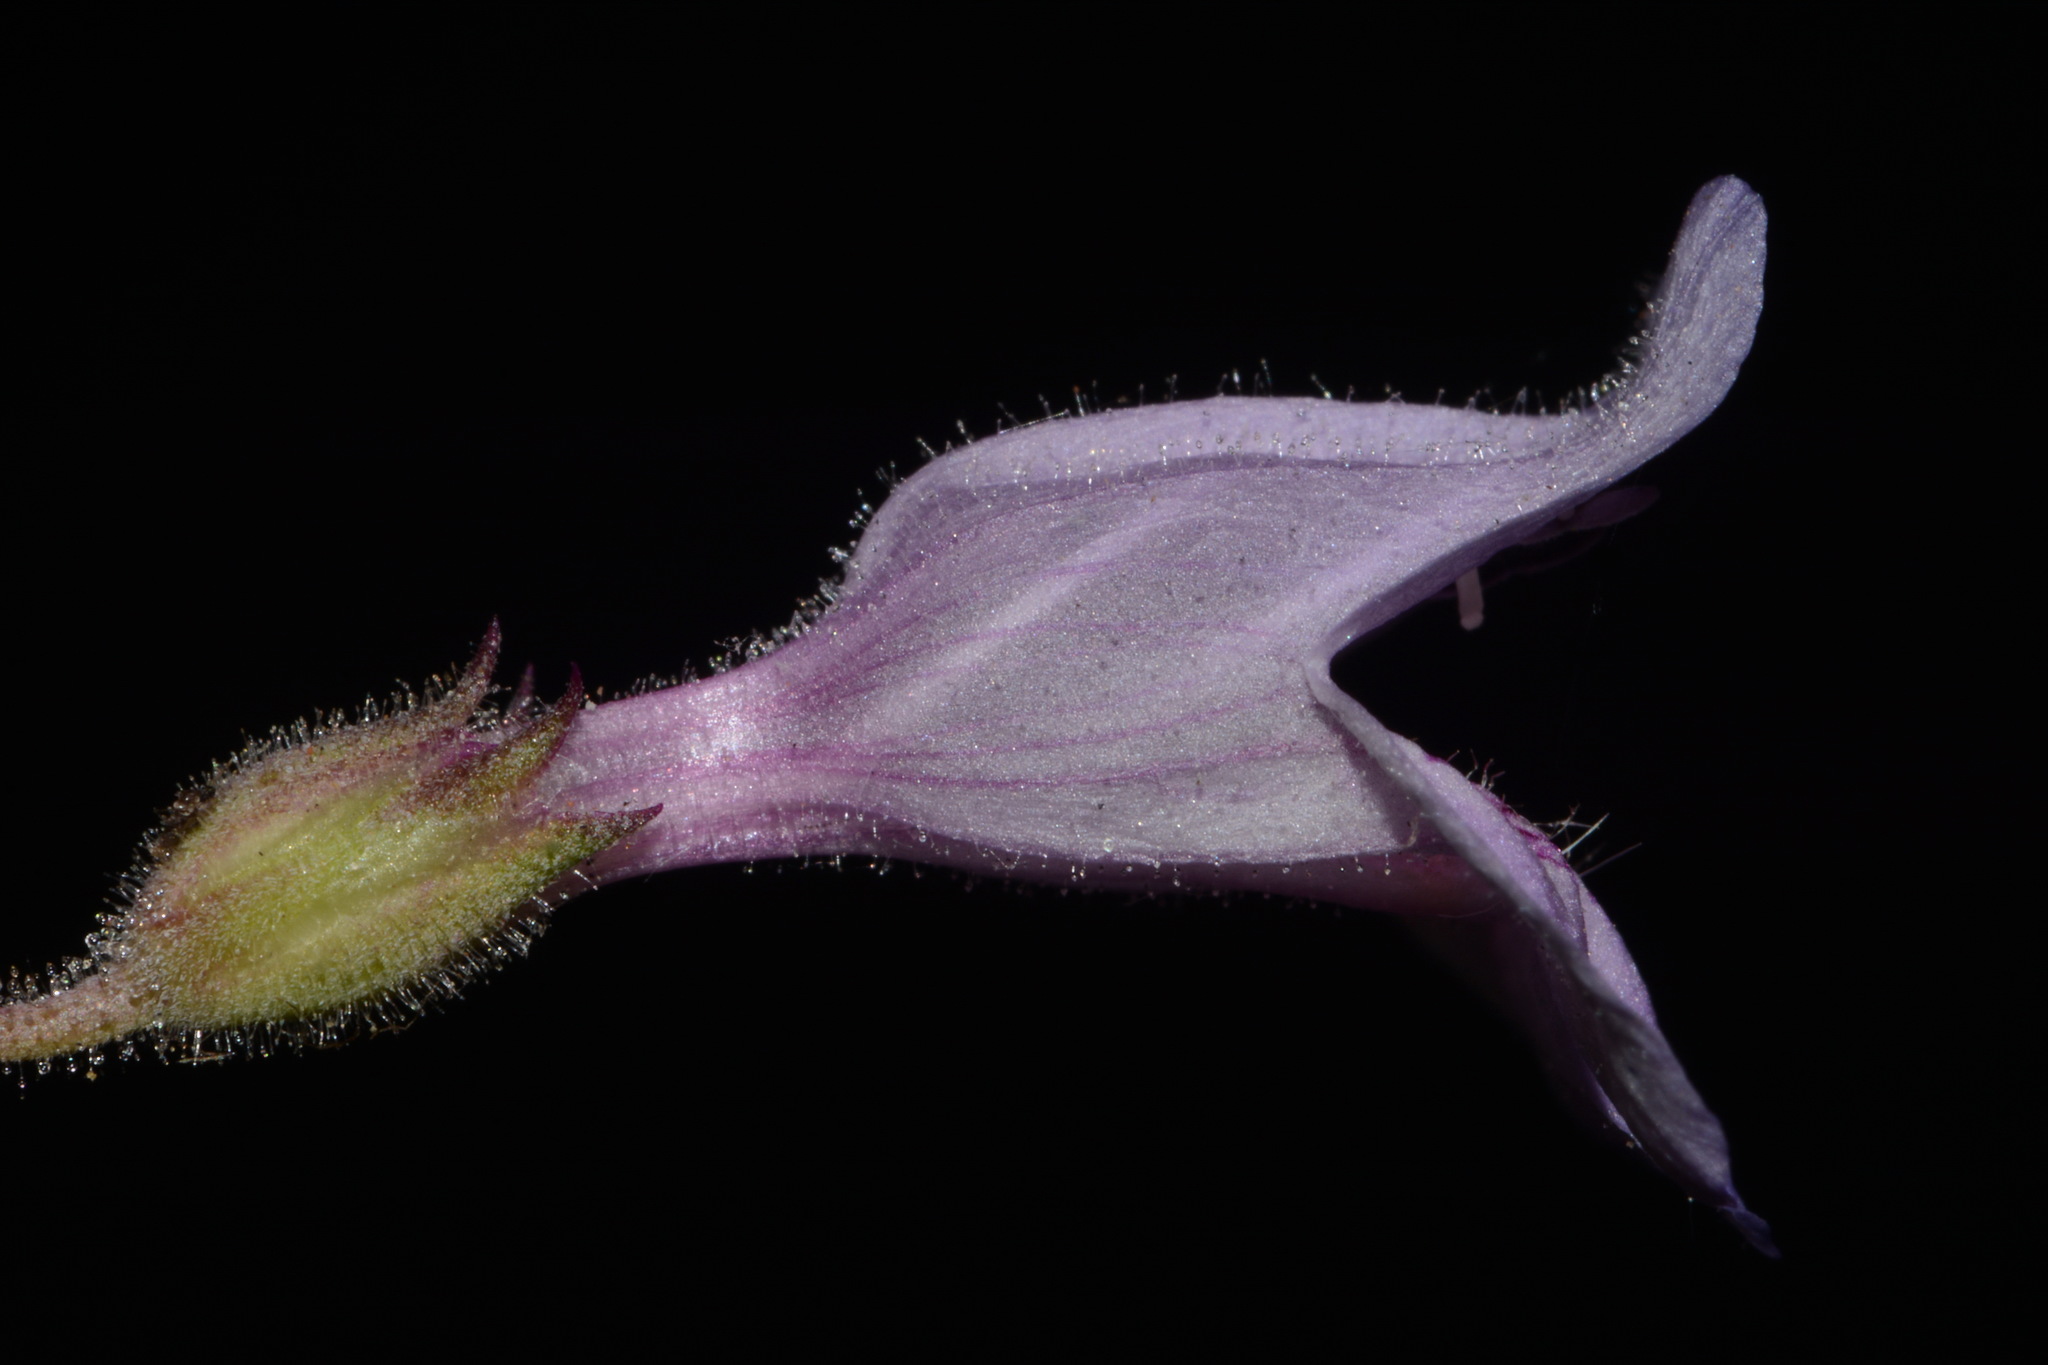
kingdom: Plantae
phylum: Tracheophyta
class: Magnoliopsida
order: Lamiales
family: Plantaginaceae
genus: Penstemon
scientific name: Penstemon linarioides
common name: Siler's penstemon
